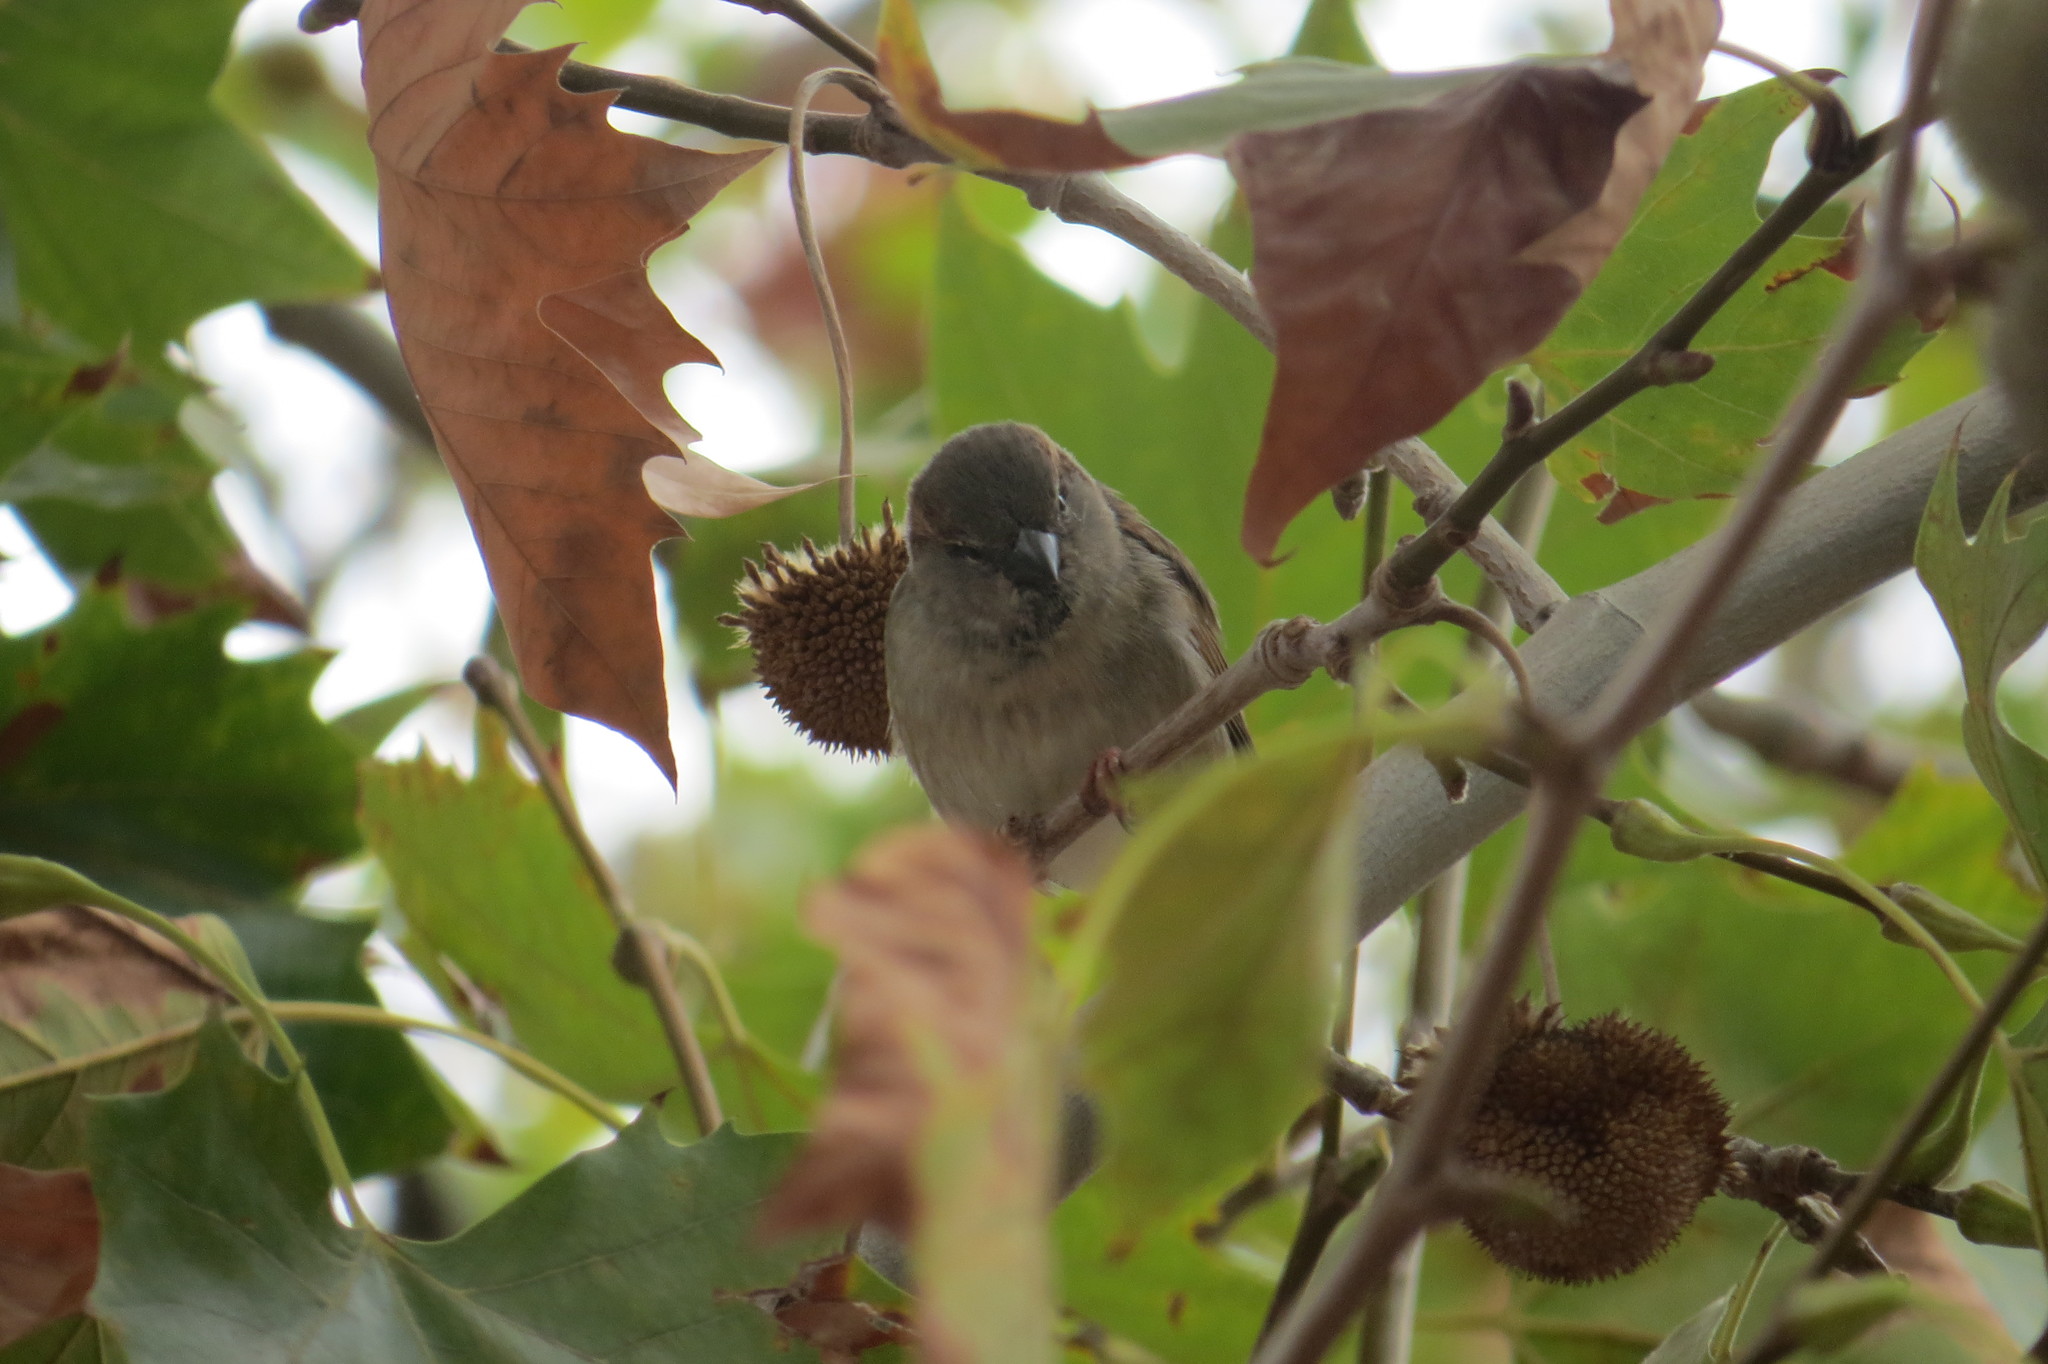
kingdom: Animalia
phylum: Chordata
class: Aves
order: Passeriformes
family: Passeridae
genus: Passer
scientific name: Passer domesticus
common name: House sparrow
